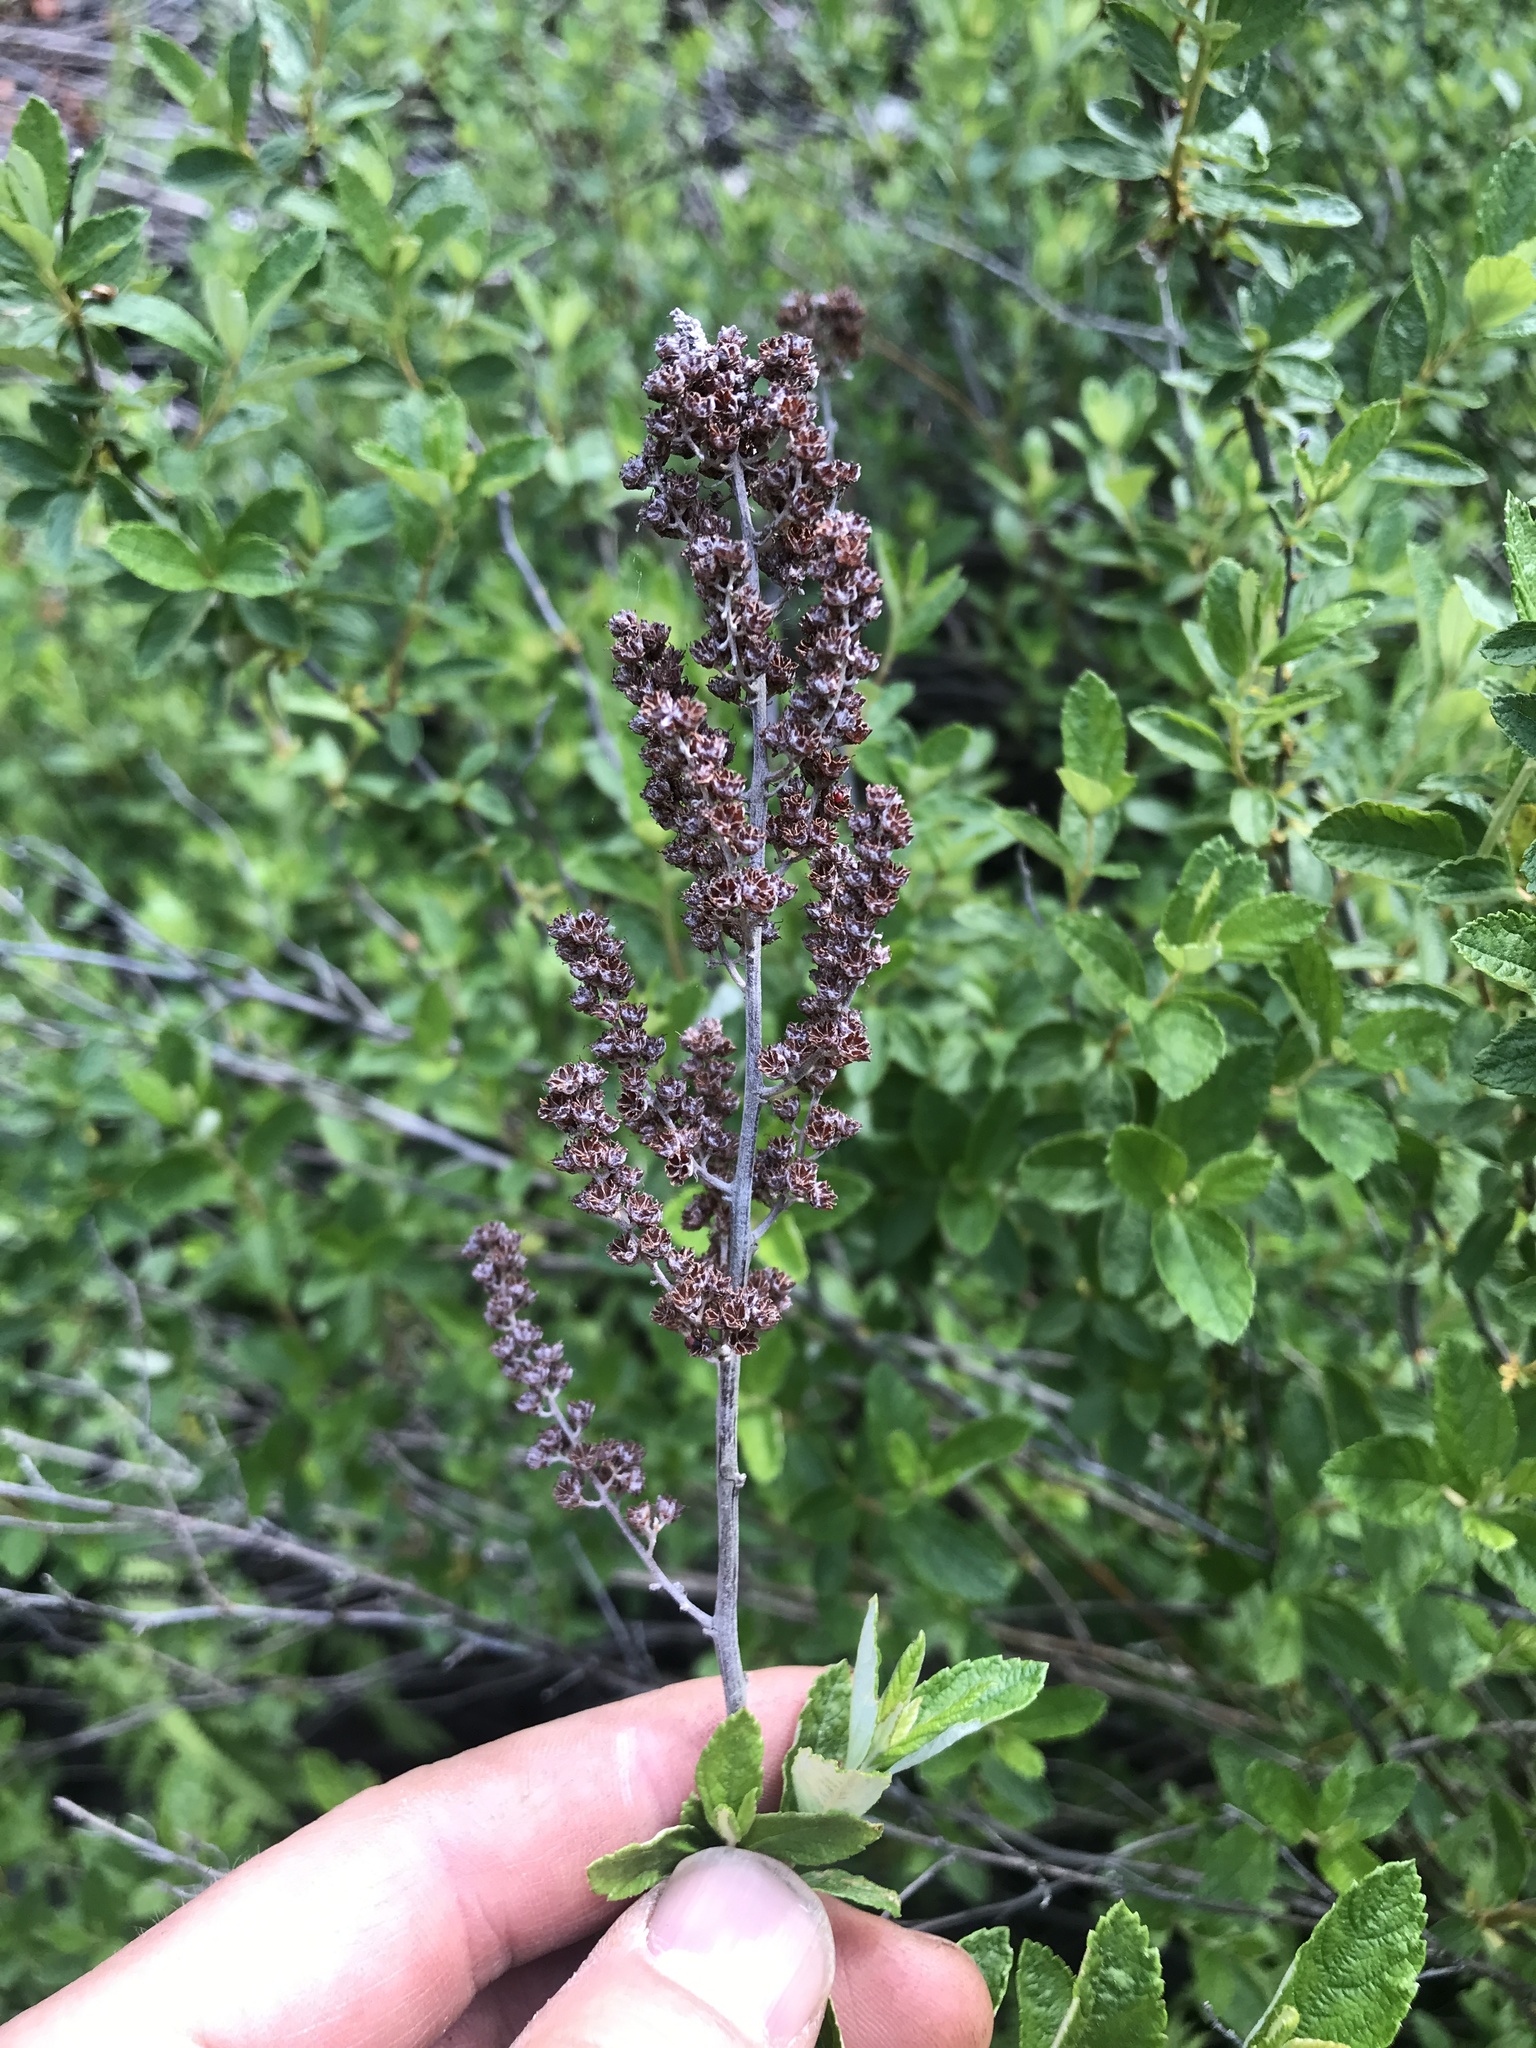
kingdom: Plantae
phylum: Tracheophyta
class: Magnoliopsida
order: Rosales
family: Rosaceae
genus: Spiraea
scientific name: Spiraea tomentosa
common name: Hardhack
